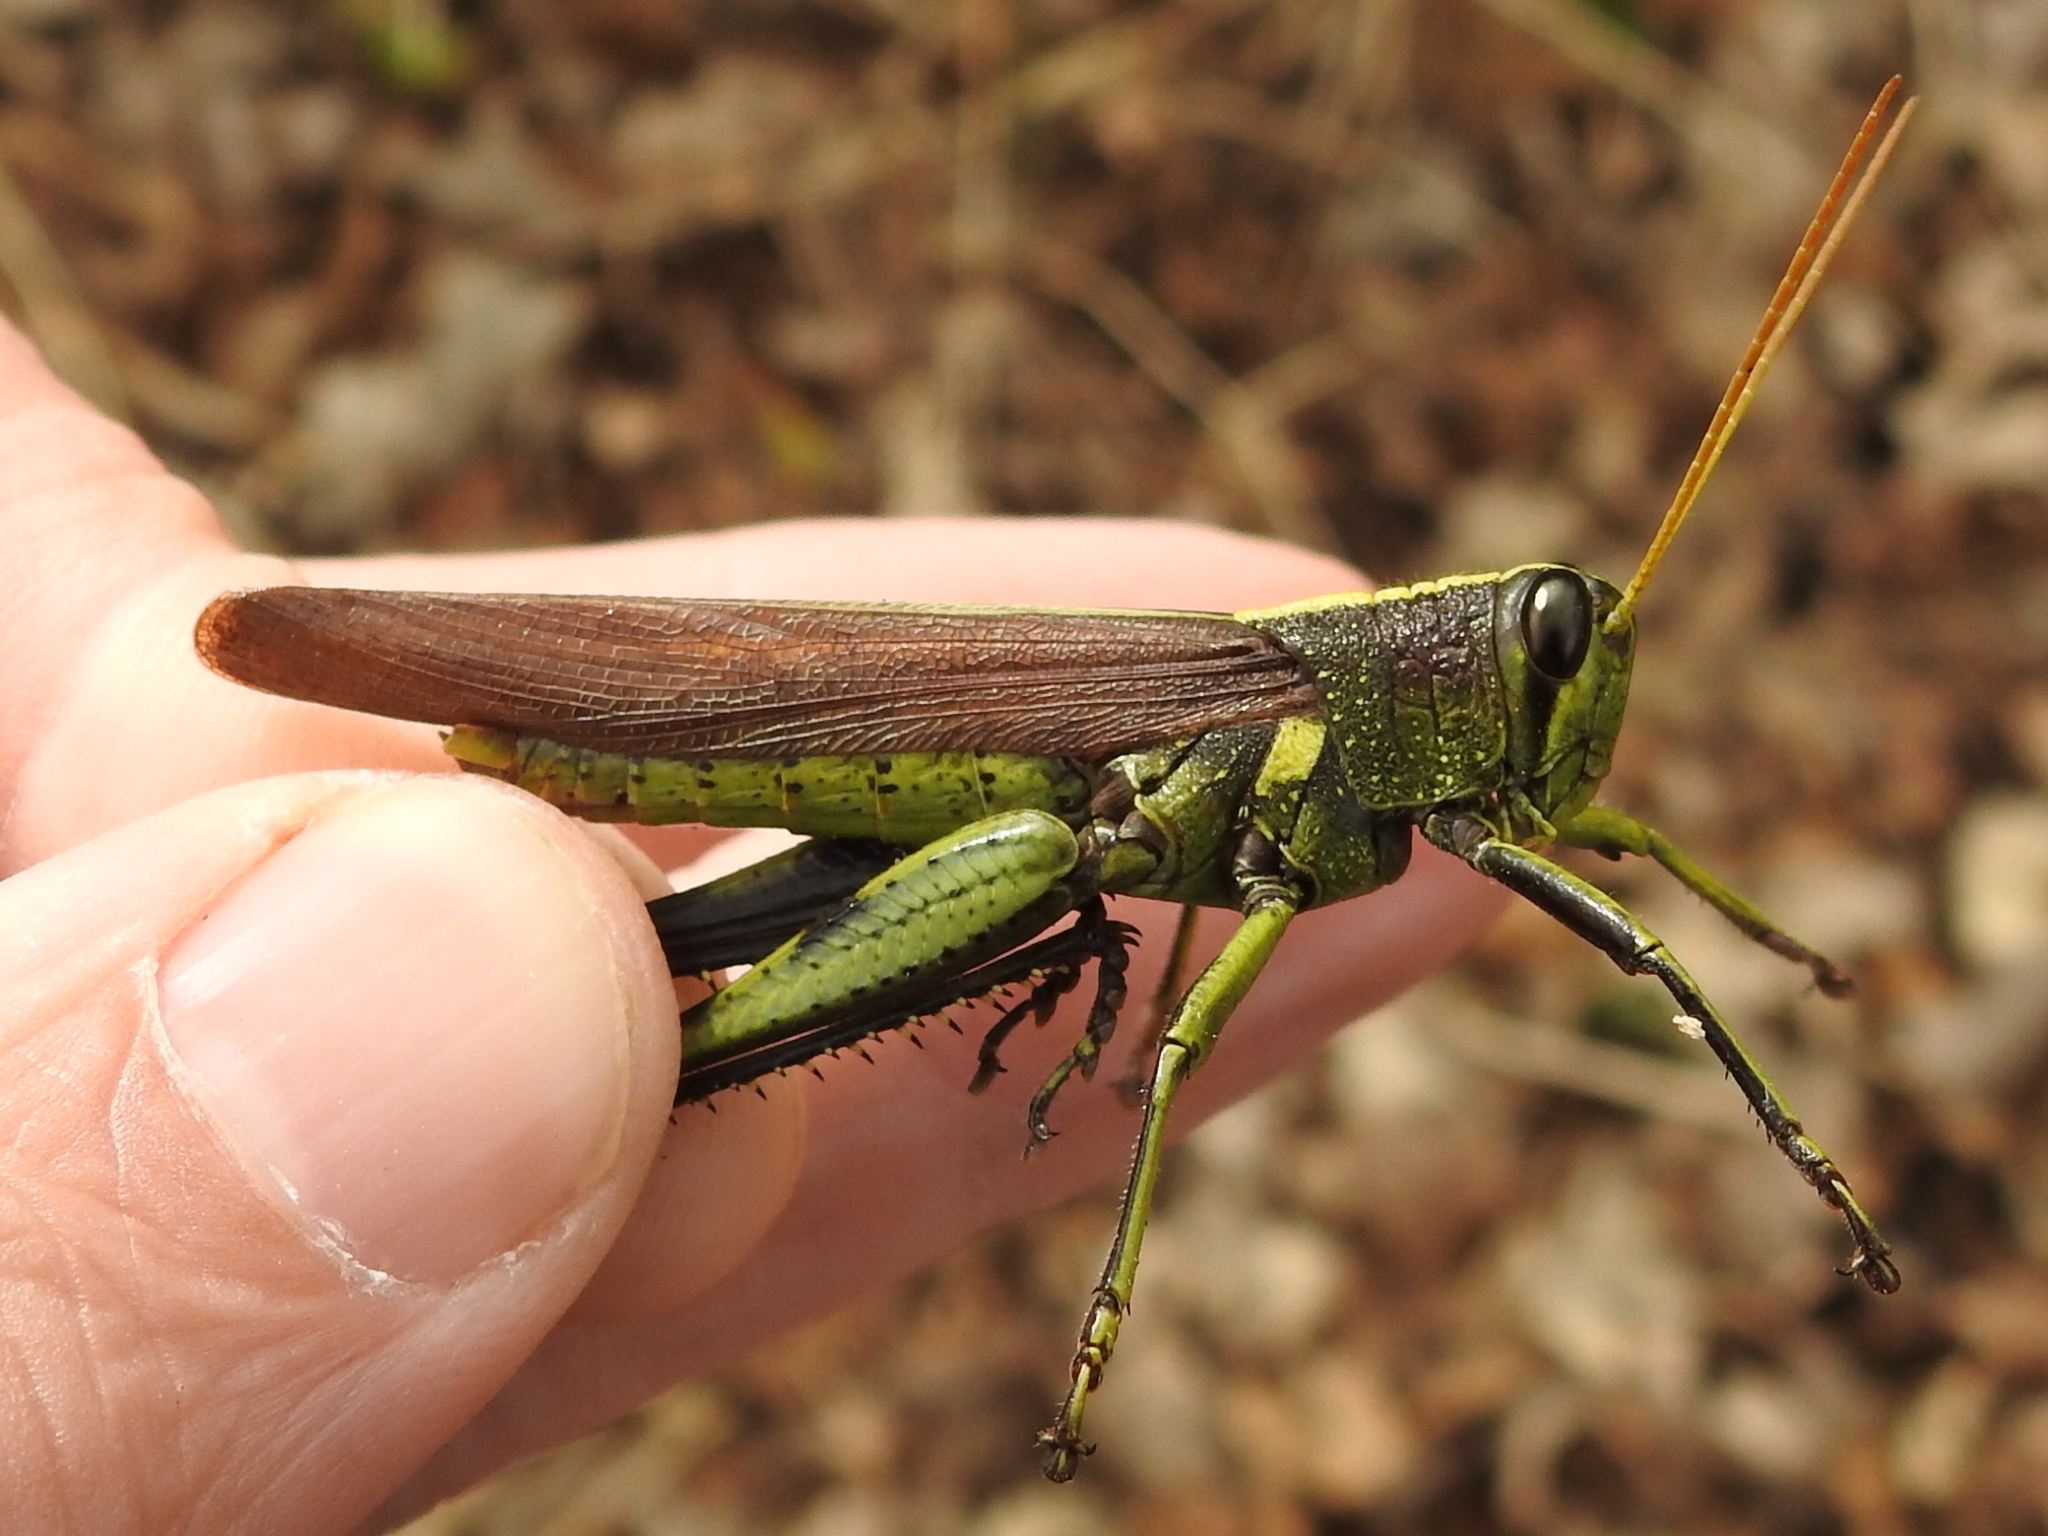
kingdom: Animalia
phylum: Arthropoda
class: Insecta
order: Orthoptera
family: Acrididae
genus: Schistocerca
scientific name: Schistocerca obscura
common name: Obscure bird grasshopper
